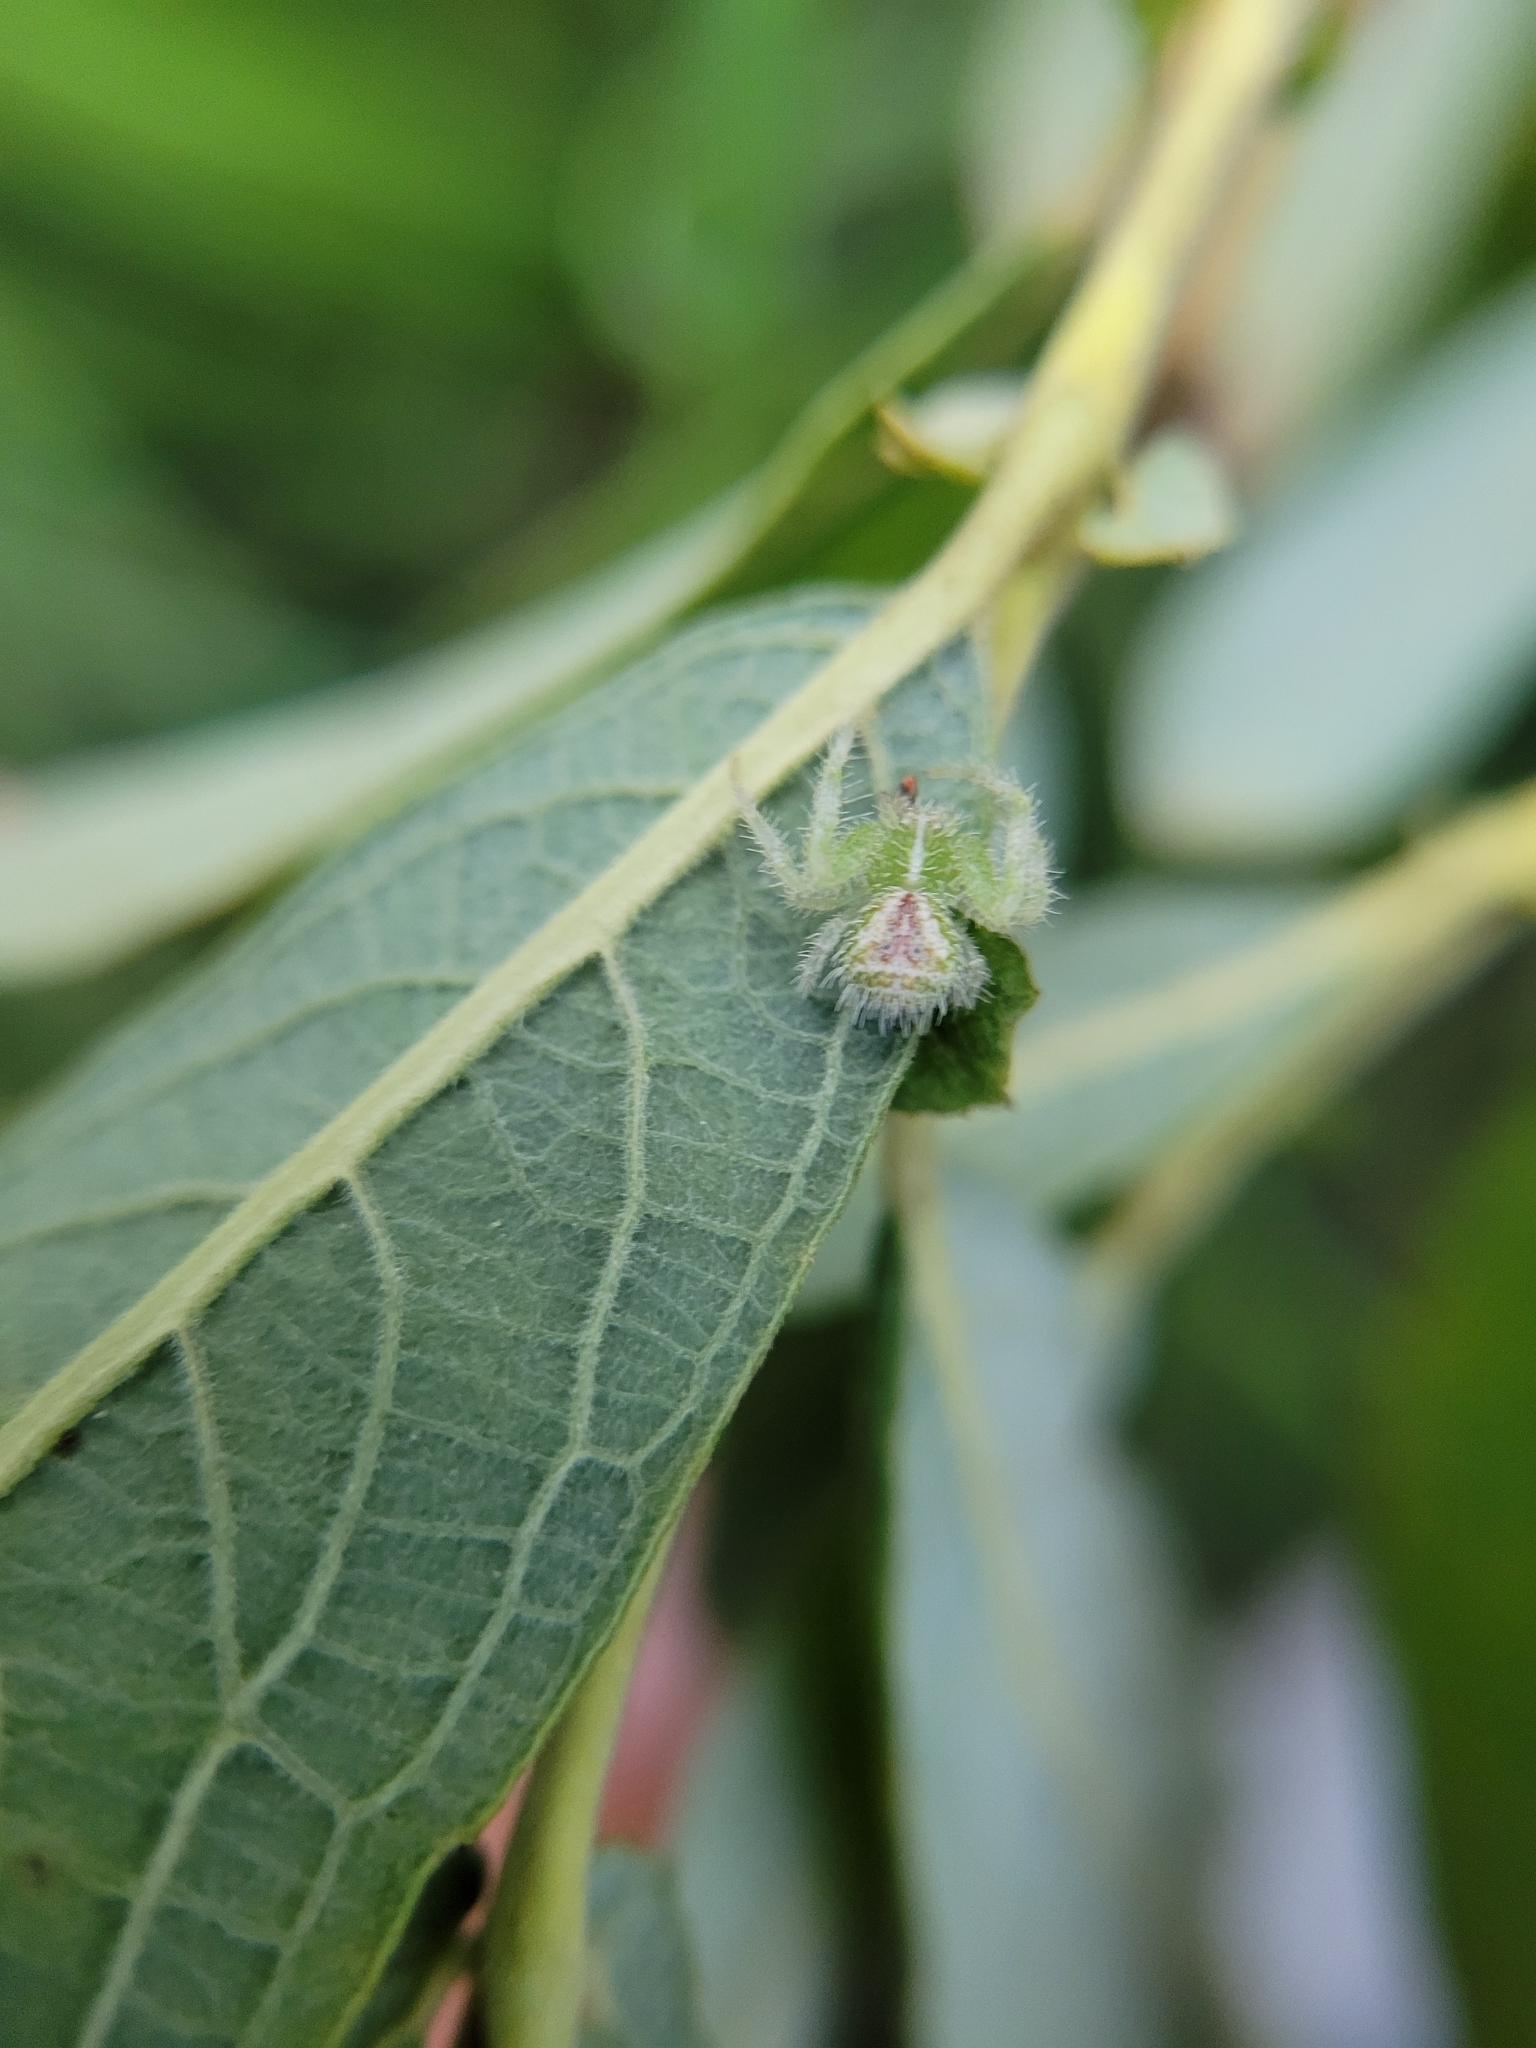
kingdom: Animalia
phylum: Arthropoda
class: Arachnida
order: Araneae
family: Thomisidae
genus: Heriaeus
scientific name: Heriaeus graminicola
